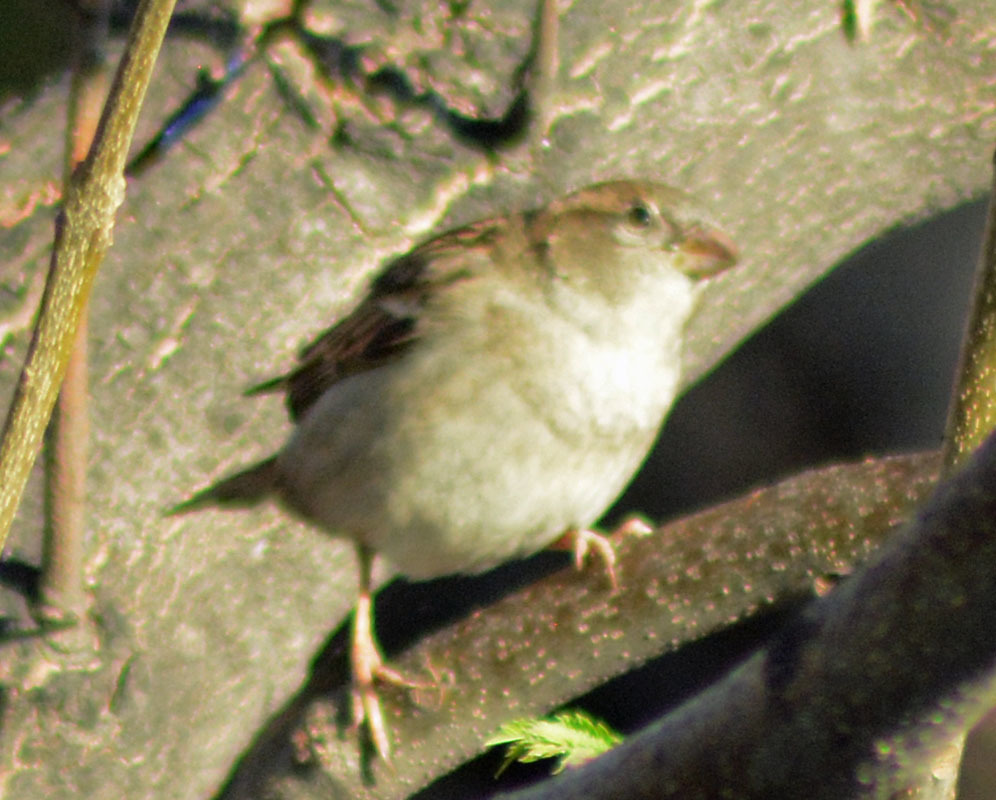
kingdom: Animalia
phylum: Chordata
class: Aves
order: Passeriformes
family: Passeridae
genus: Passer
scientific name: Passer domesticus
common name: House sparrow
